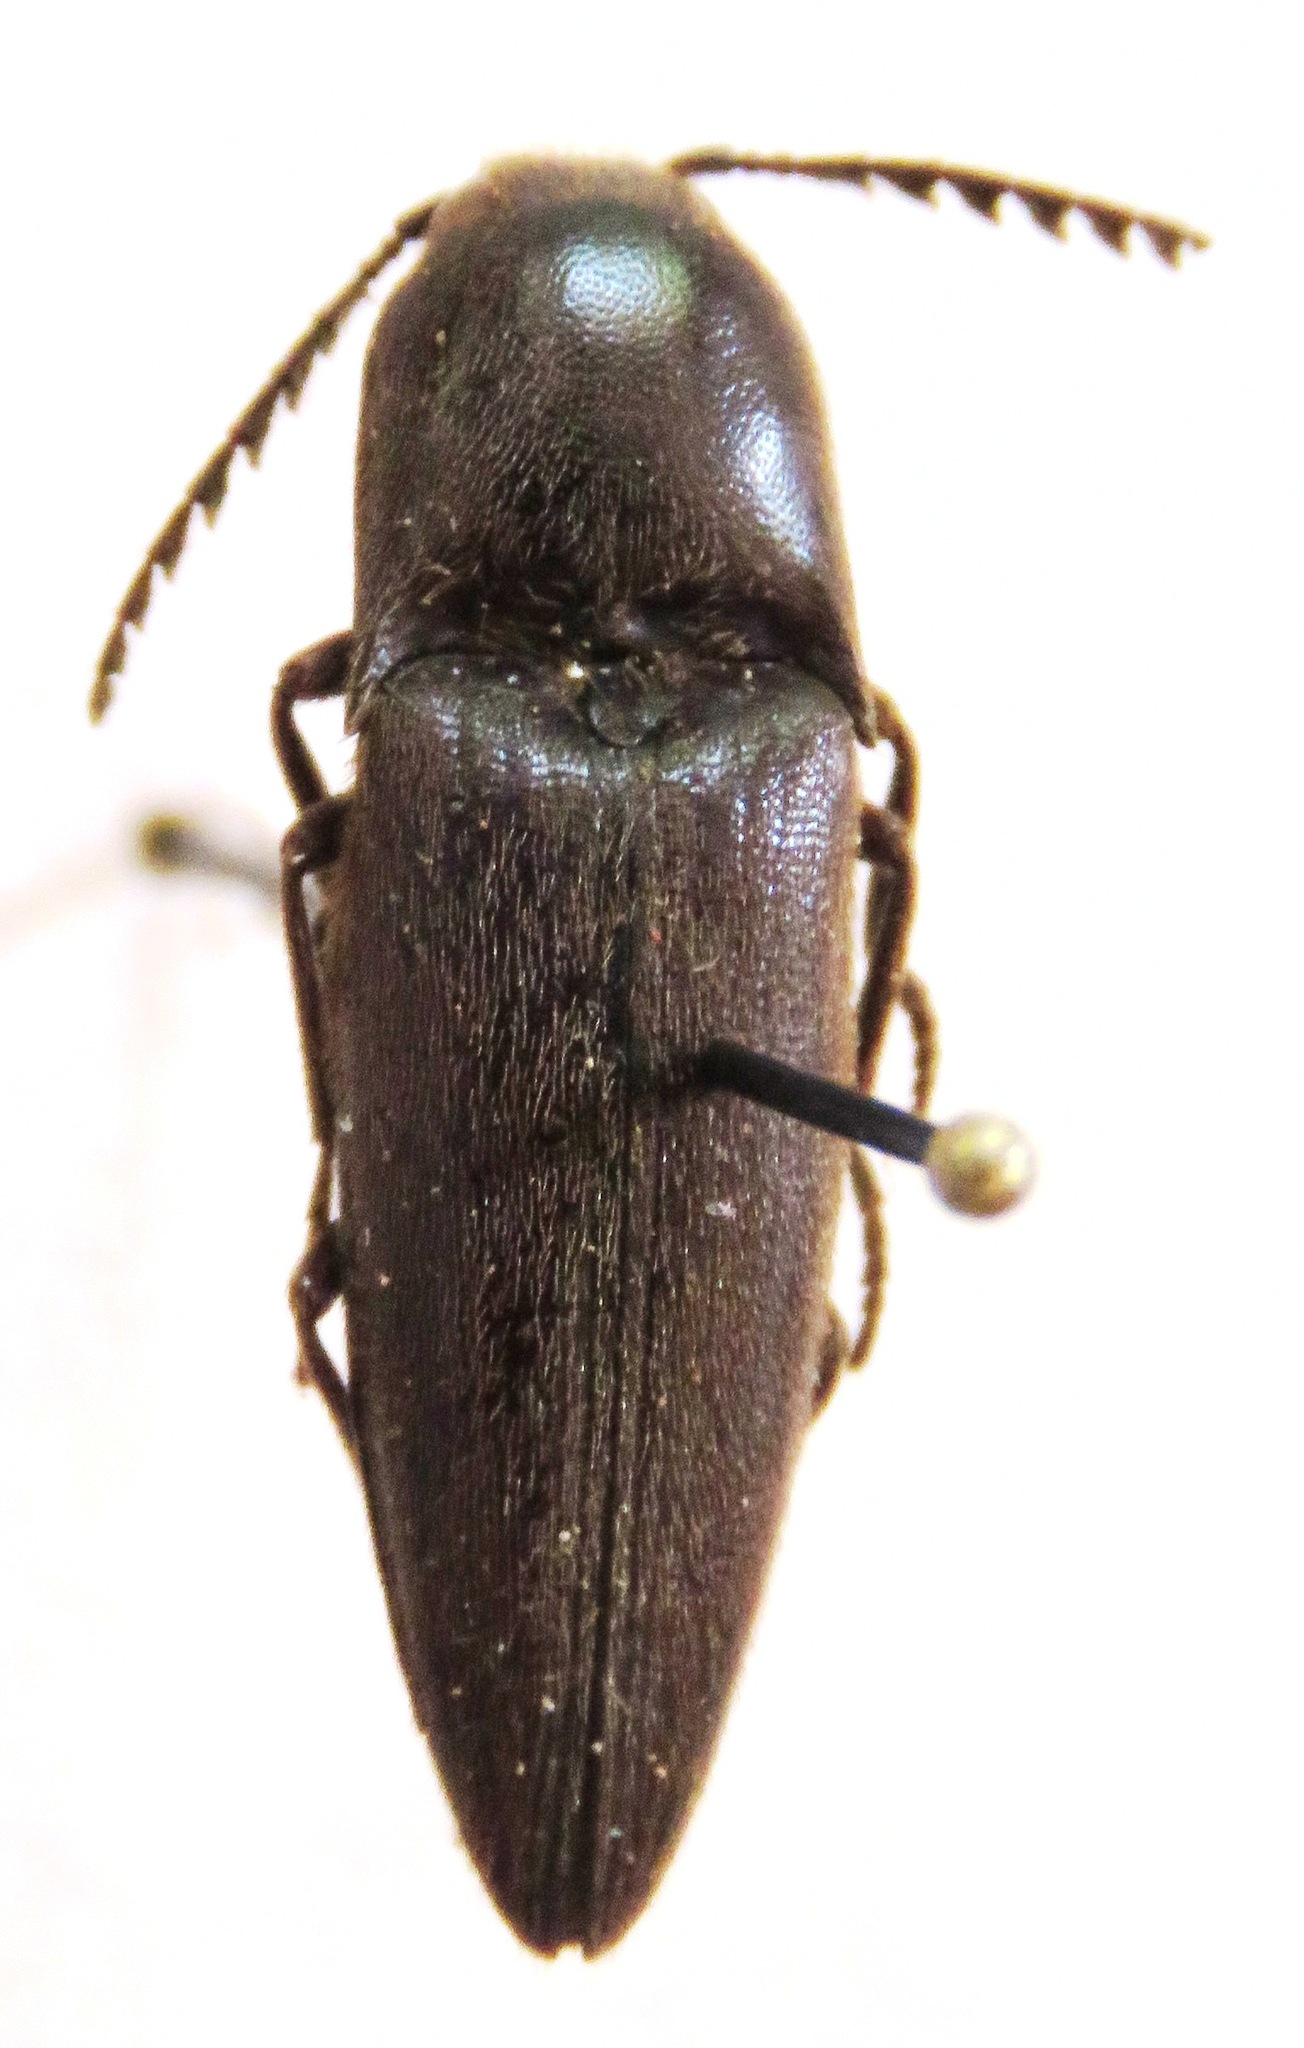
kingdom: Animalia
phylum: Arthropoda
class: Insecta
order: Coleoptera
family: Elateridae
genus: Orthostethus
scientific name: Orthostethus infuscatus
